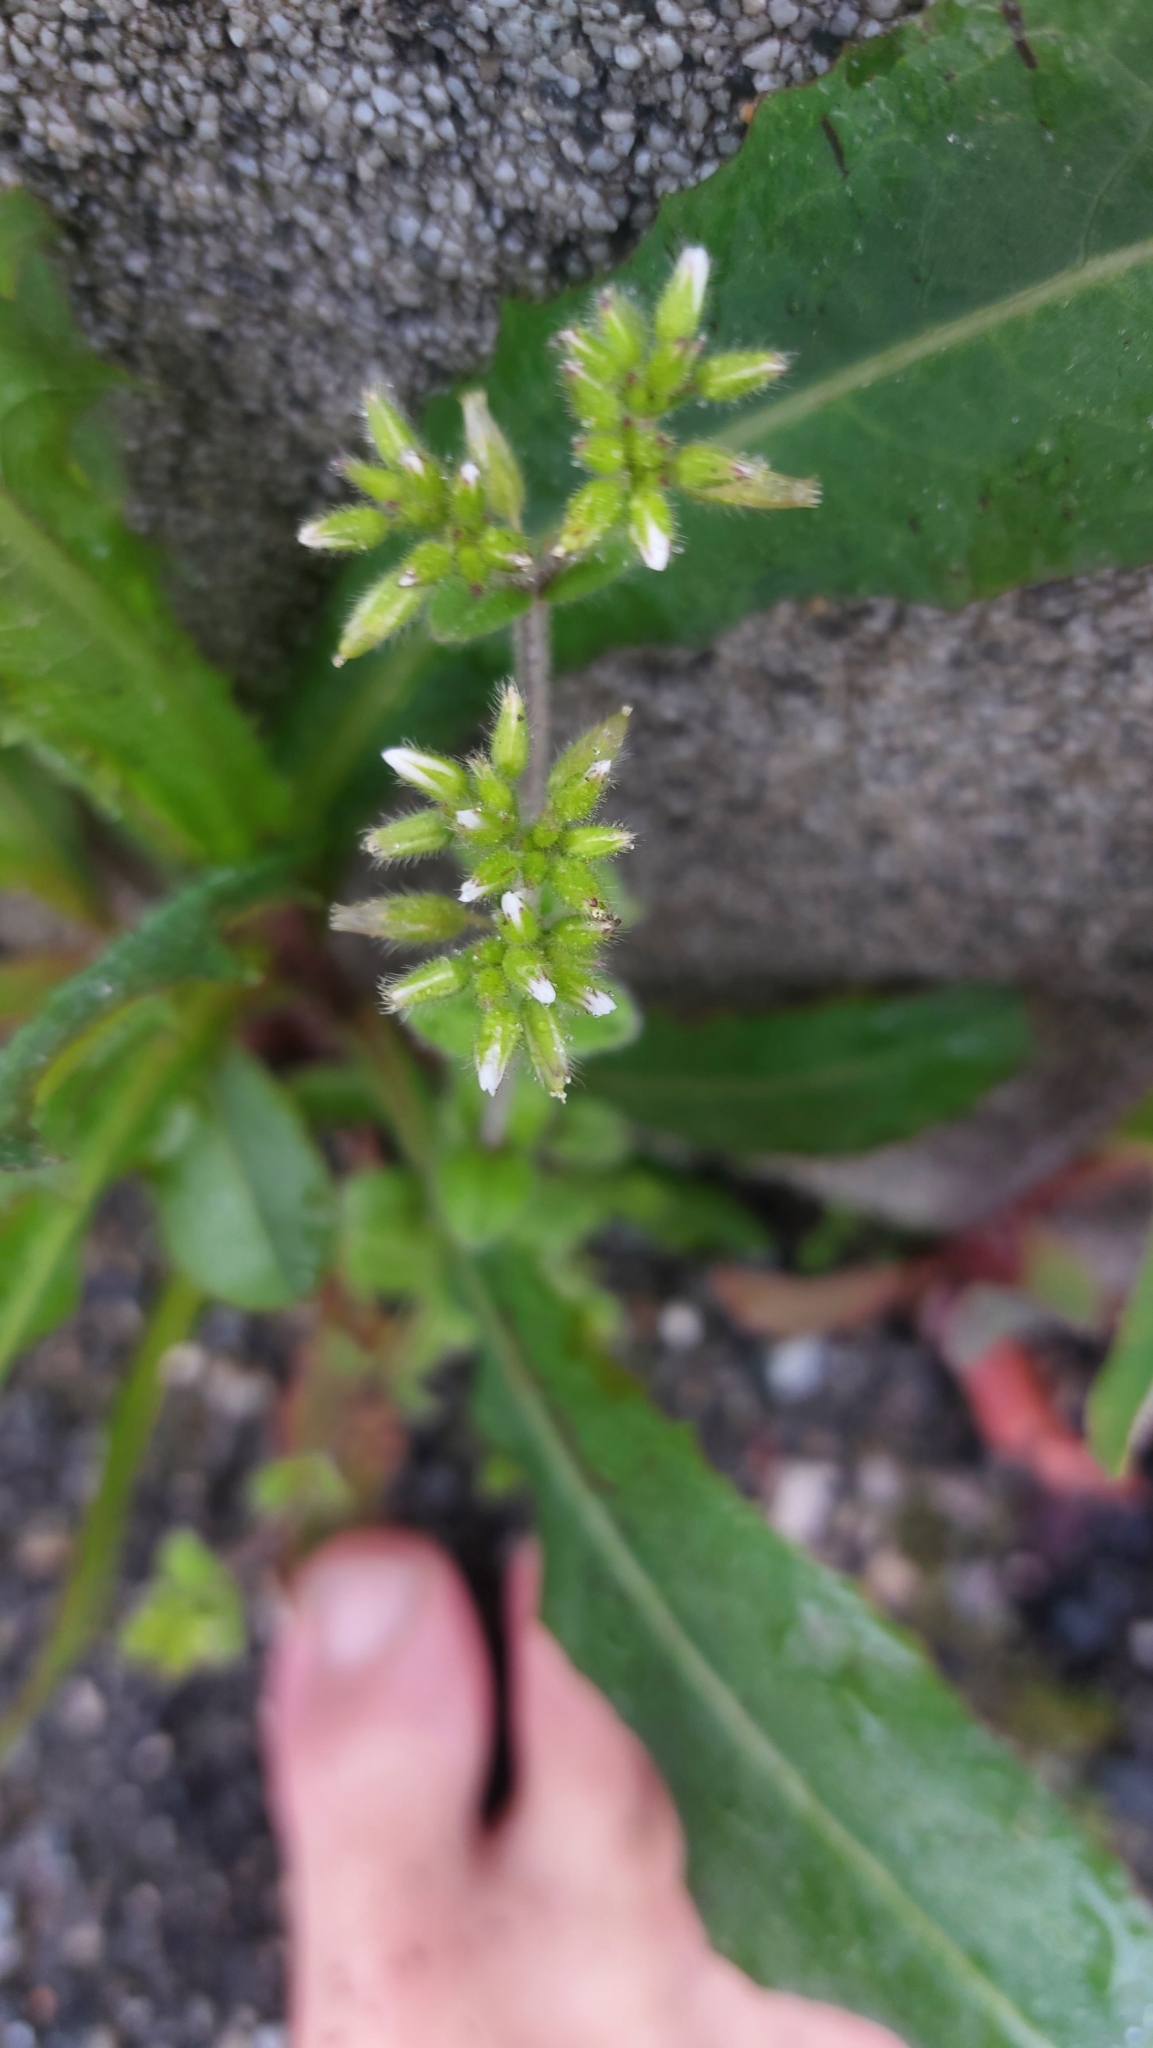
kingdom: Plantae
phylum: Tracheophyta
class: Magnoliopsida
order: Caryophyllales
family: Caryophyllaceae
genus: Cerastium
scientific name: Cerastium glomeratum
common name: Sticky chickweed
